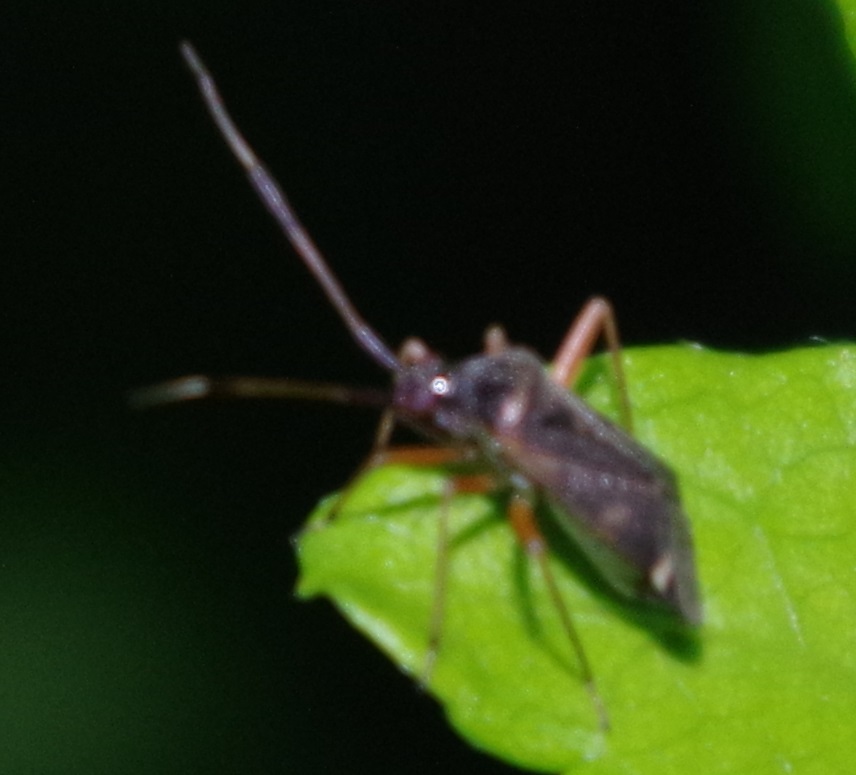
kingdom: Animalia
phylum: Arthropoda
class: Insecta
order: Hemiptera
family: Miridae
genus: Closterotomus
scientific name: Closterotomus biclavatus
